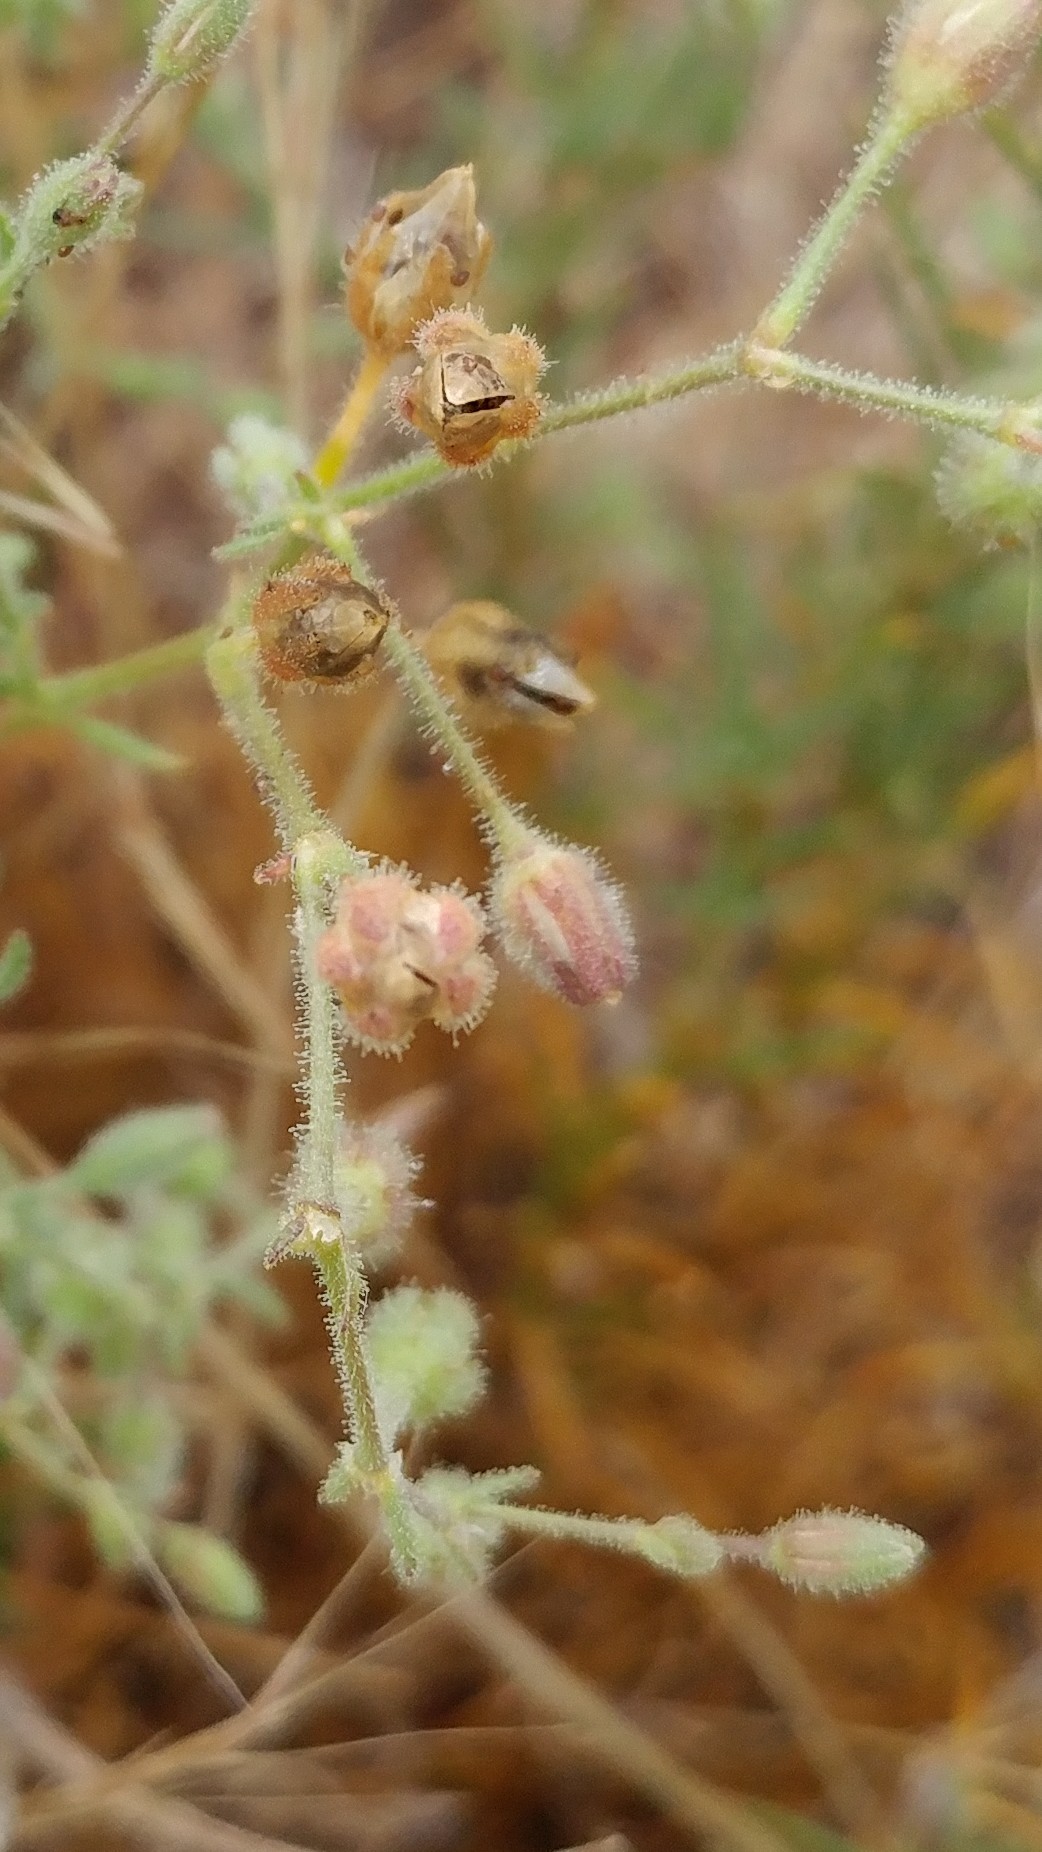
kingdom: Plantae
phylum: Tracheophyta
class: Magnoliopsida
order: Caryophyllales
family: Caryophyllaceae
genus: Spergularia
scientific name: Spergularia villosa
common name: Hairy sandspurry
